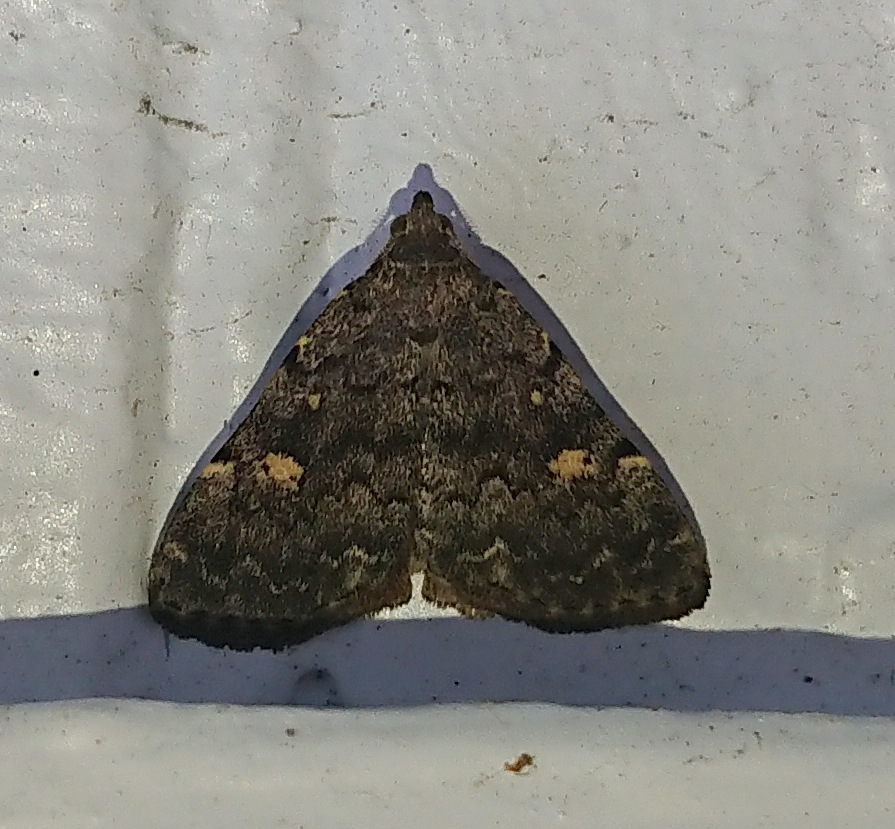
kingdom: Animalia
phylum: Arthropoda
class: Insecta
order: Lepidoptera
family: Erebidae
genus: Idia
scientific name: Idia aemula
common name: Common idia moth
